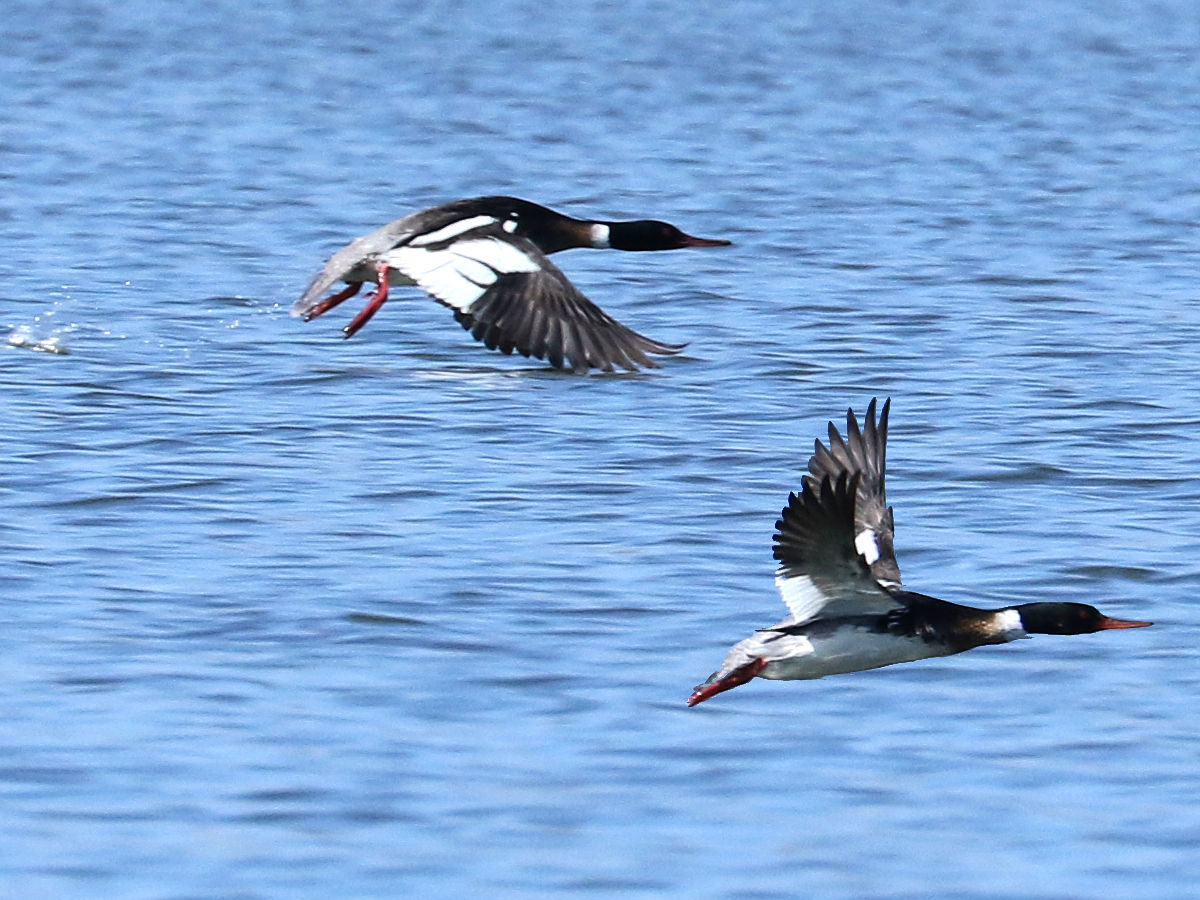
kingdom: Animalia
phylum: Chordata
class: Aves
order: Anseriformes
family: Anatidae
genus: Mergus
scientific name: Mergus serrator
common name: Red-breasted merganser
